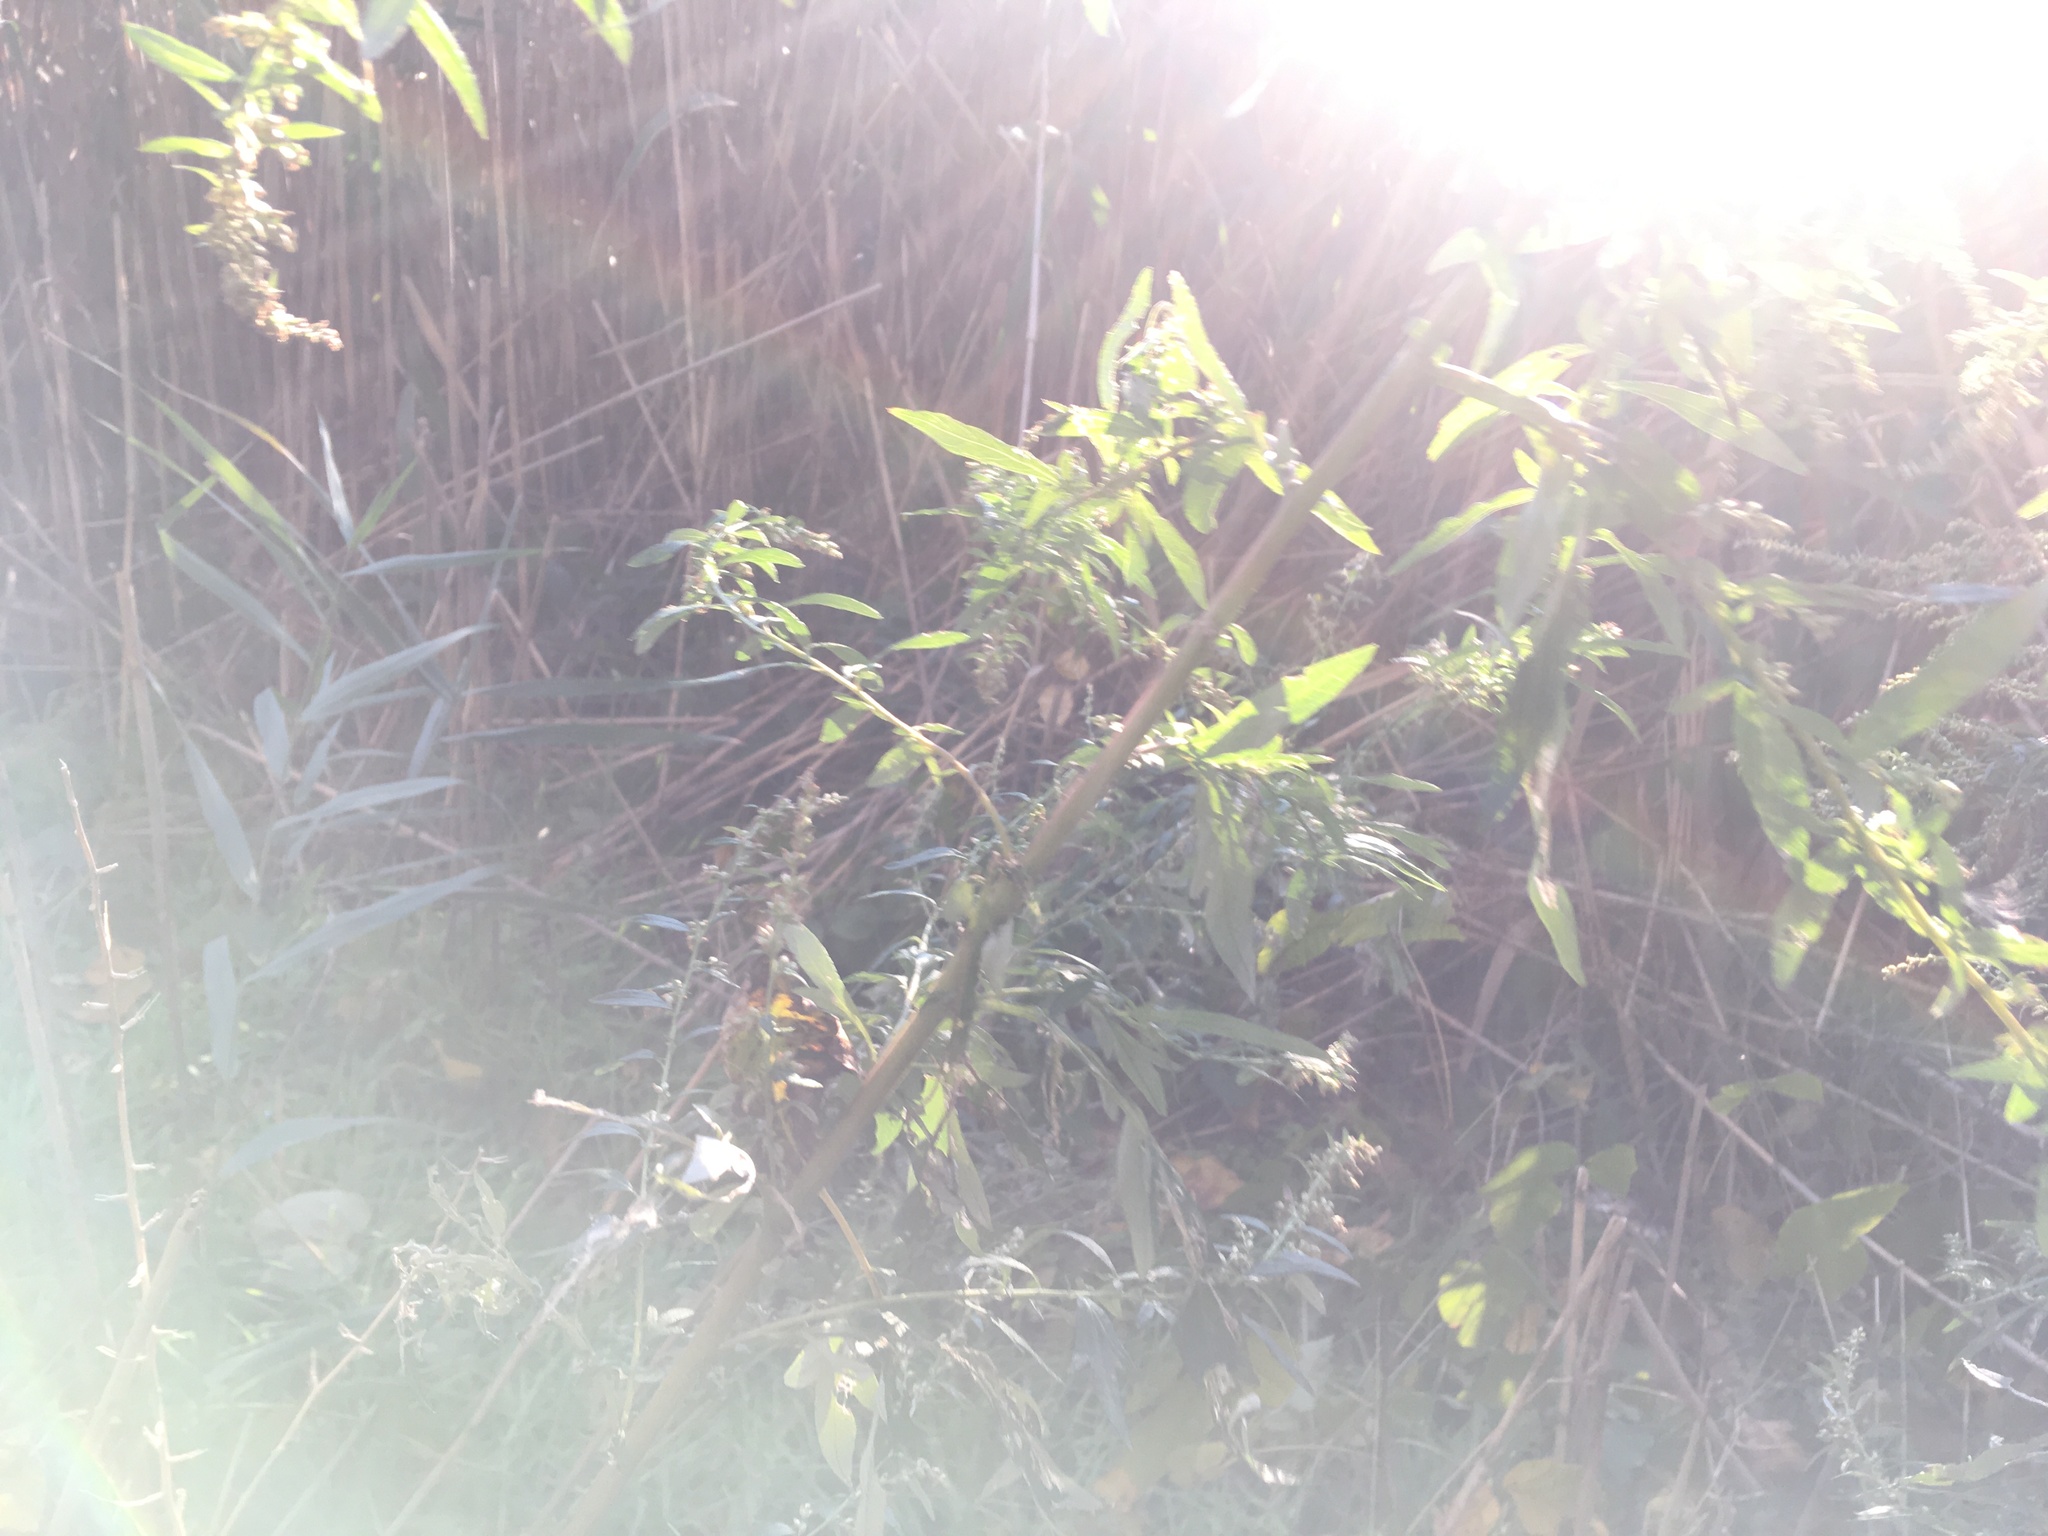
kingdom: Plantae
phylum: Tracheophyta
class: Magnoliopsida
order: Asterales
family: Asteraceae
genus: Artemisia
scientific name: Artemisia vulgaris
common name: Mugwort
